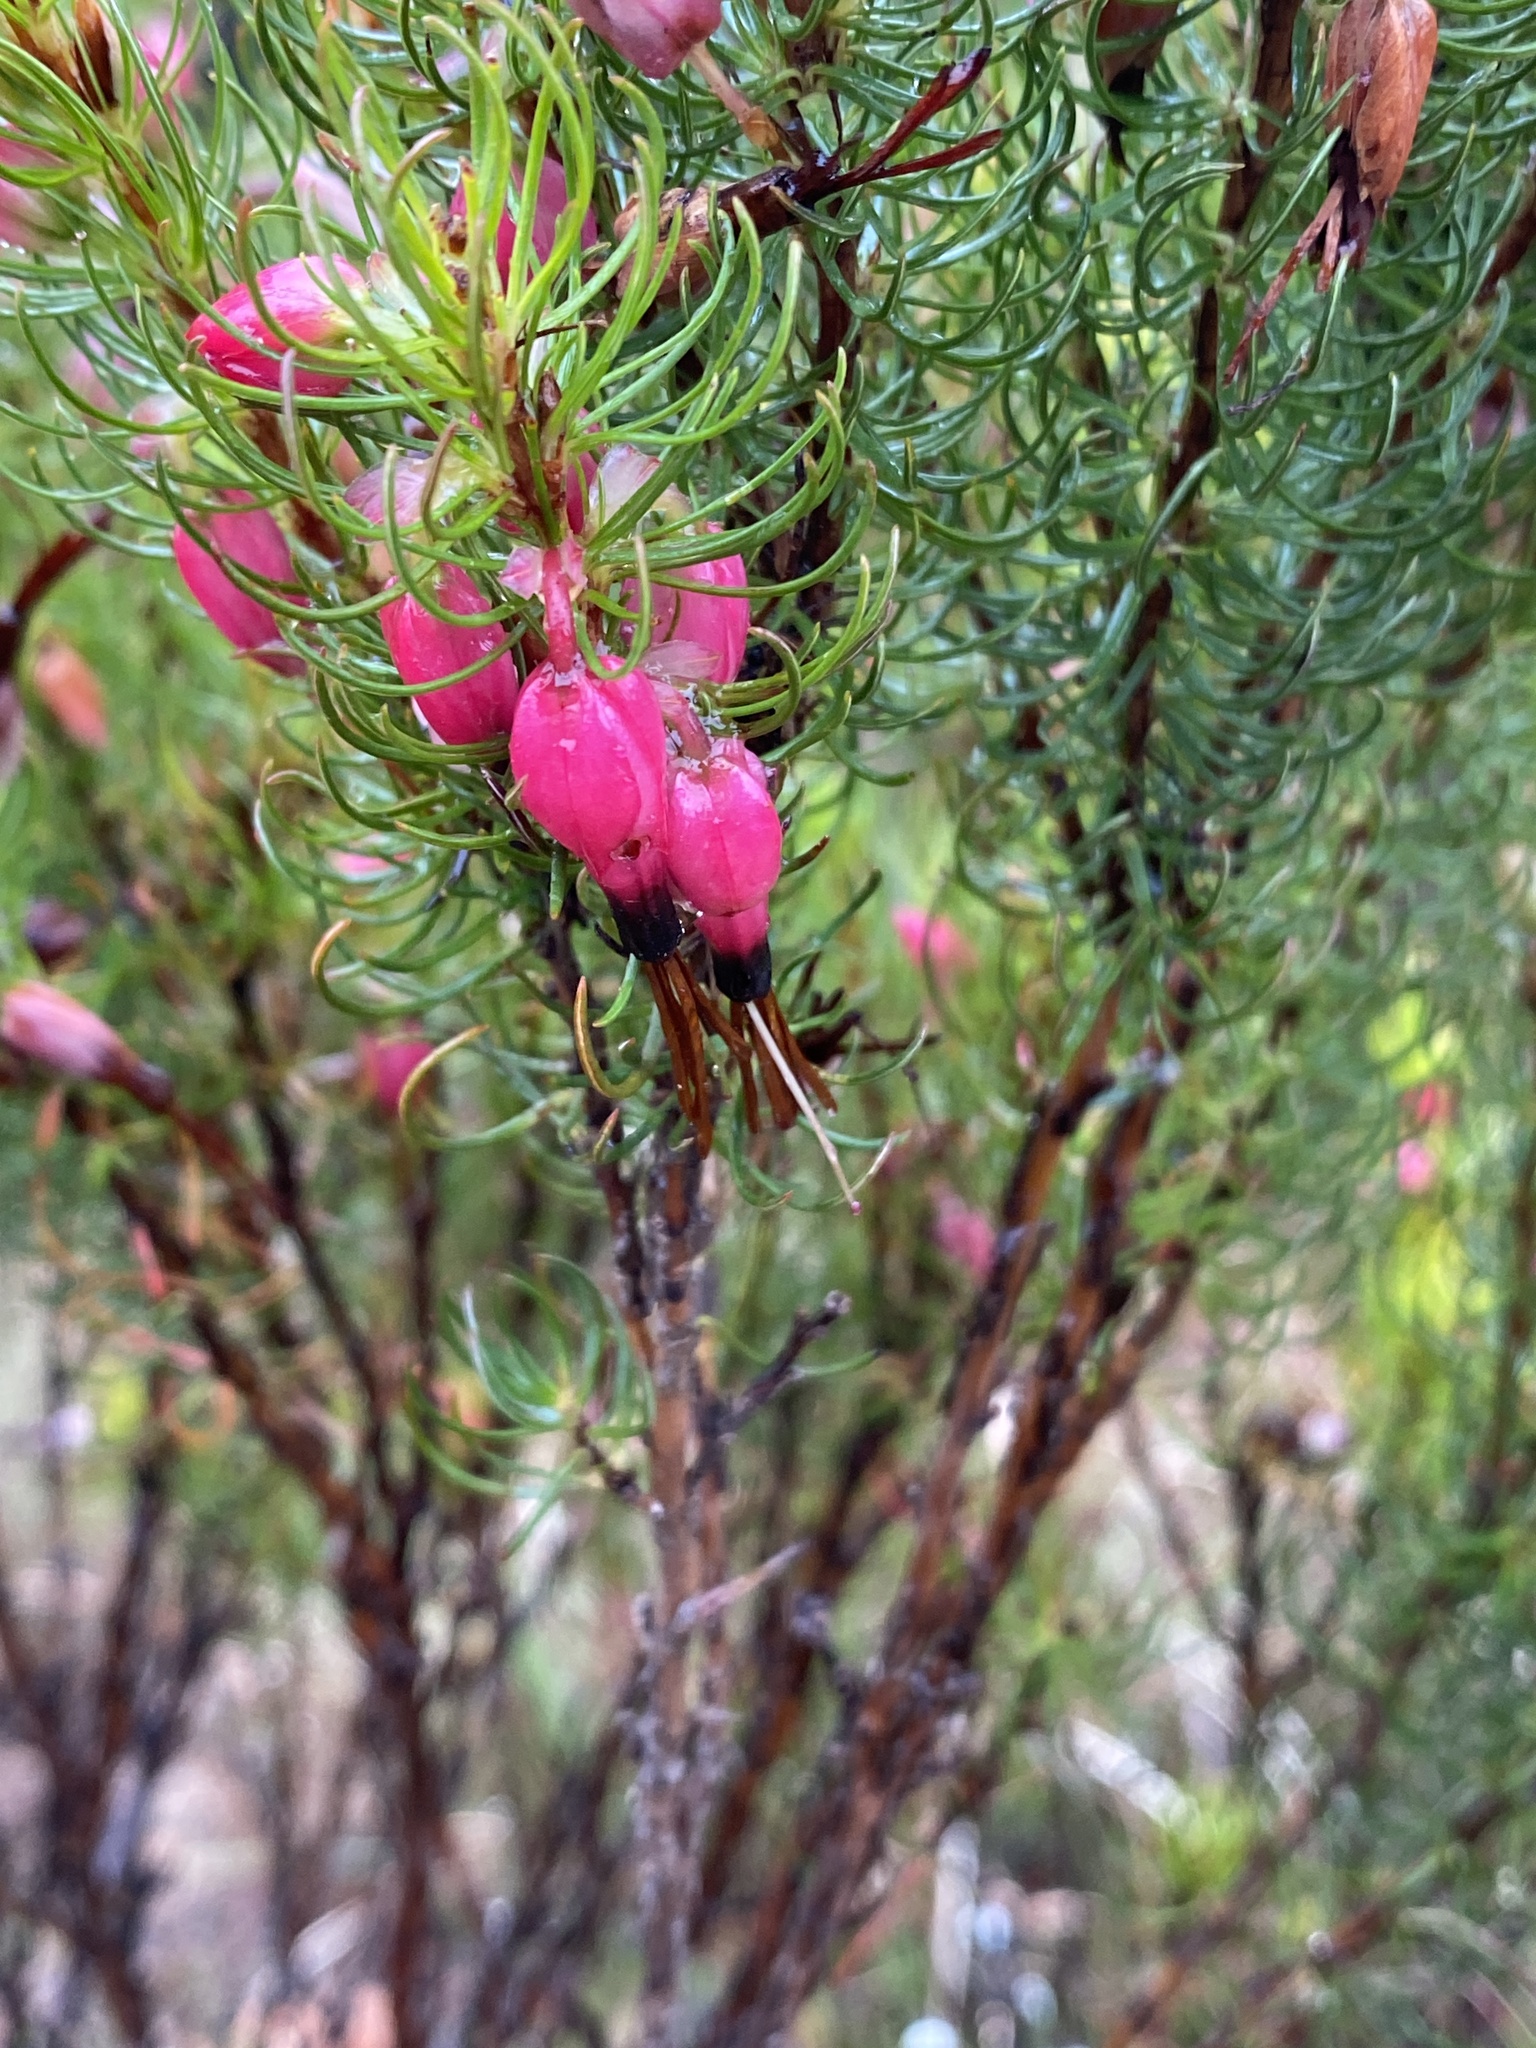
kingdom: Plantae
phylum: Tracheophyta
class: Magnoliopsida
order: Ericales
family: Ericaceae
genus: Erica
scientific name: Erica plukenetii
